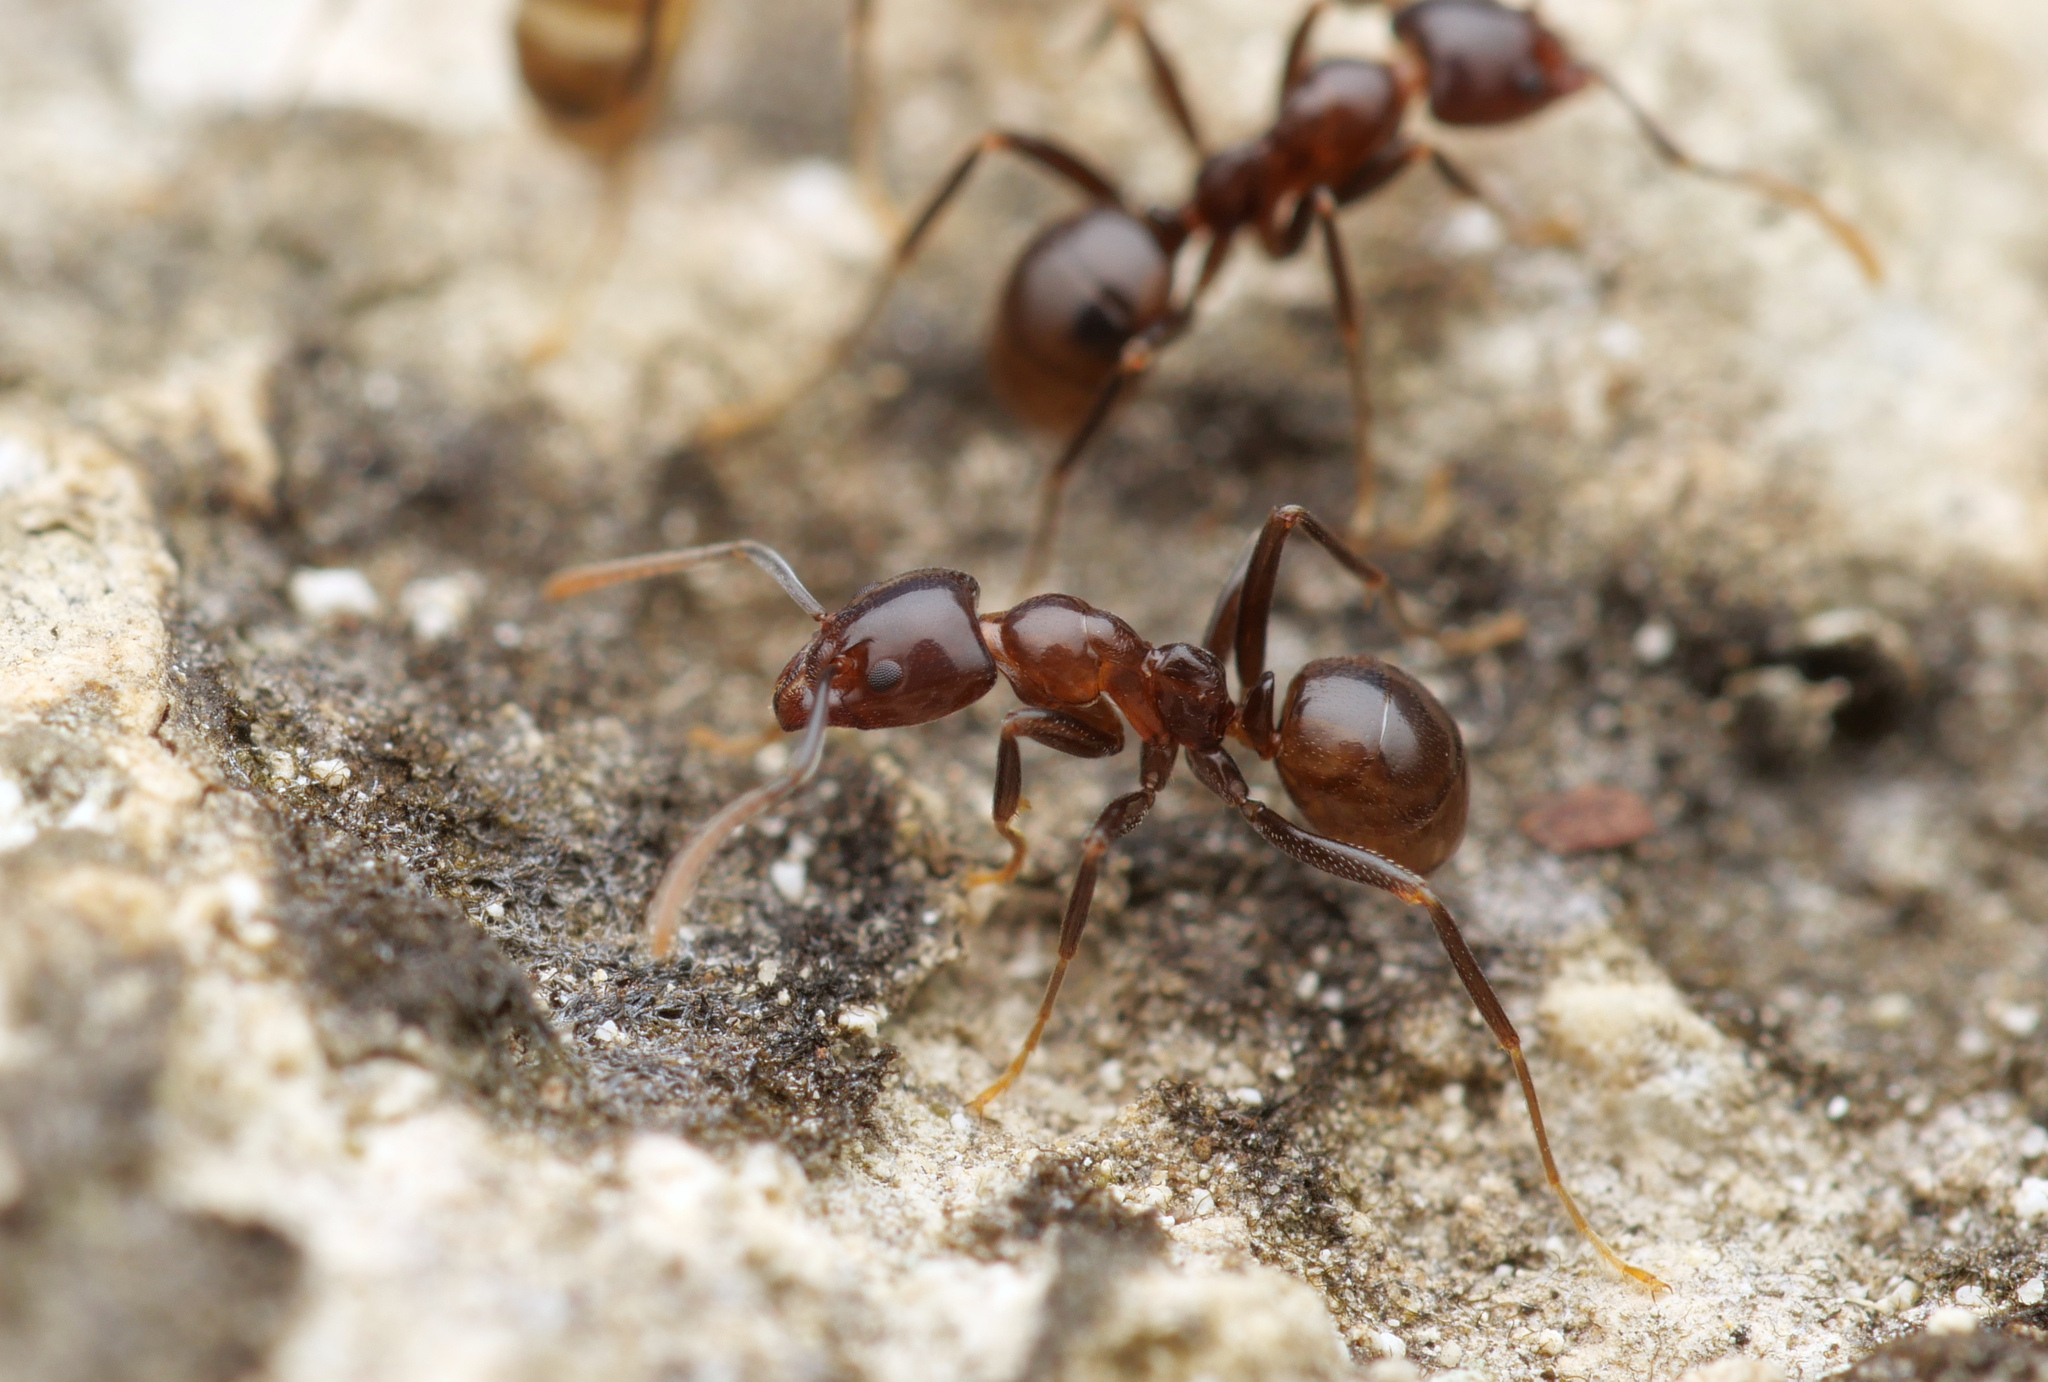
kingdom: Animalia
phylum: Arthropoda
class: Insecta
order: Hymenoptera
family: Formicidae
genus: Papyrius
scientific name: Papyrius nitidus
